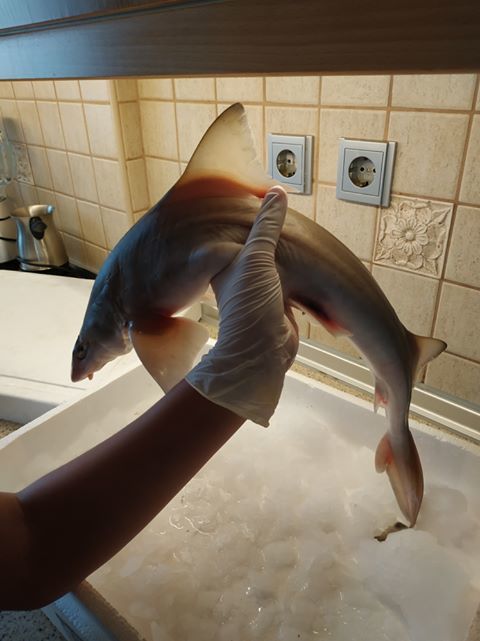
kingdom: Animalia
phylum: Chordata
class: Elasmobranchii
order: Carcharhiniformes
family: Triakidae
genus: Mustelus
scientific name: Mustelus mustelus
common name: Smooth-hound
